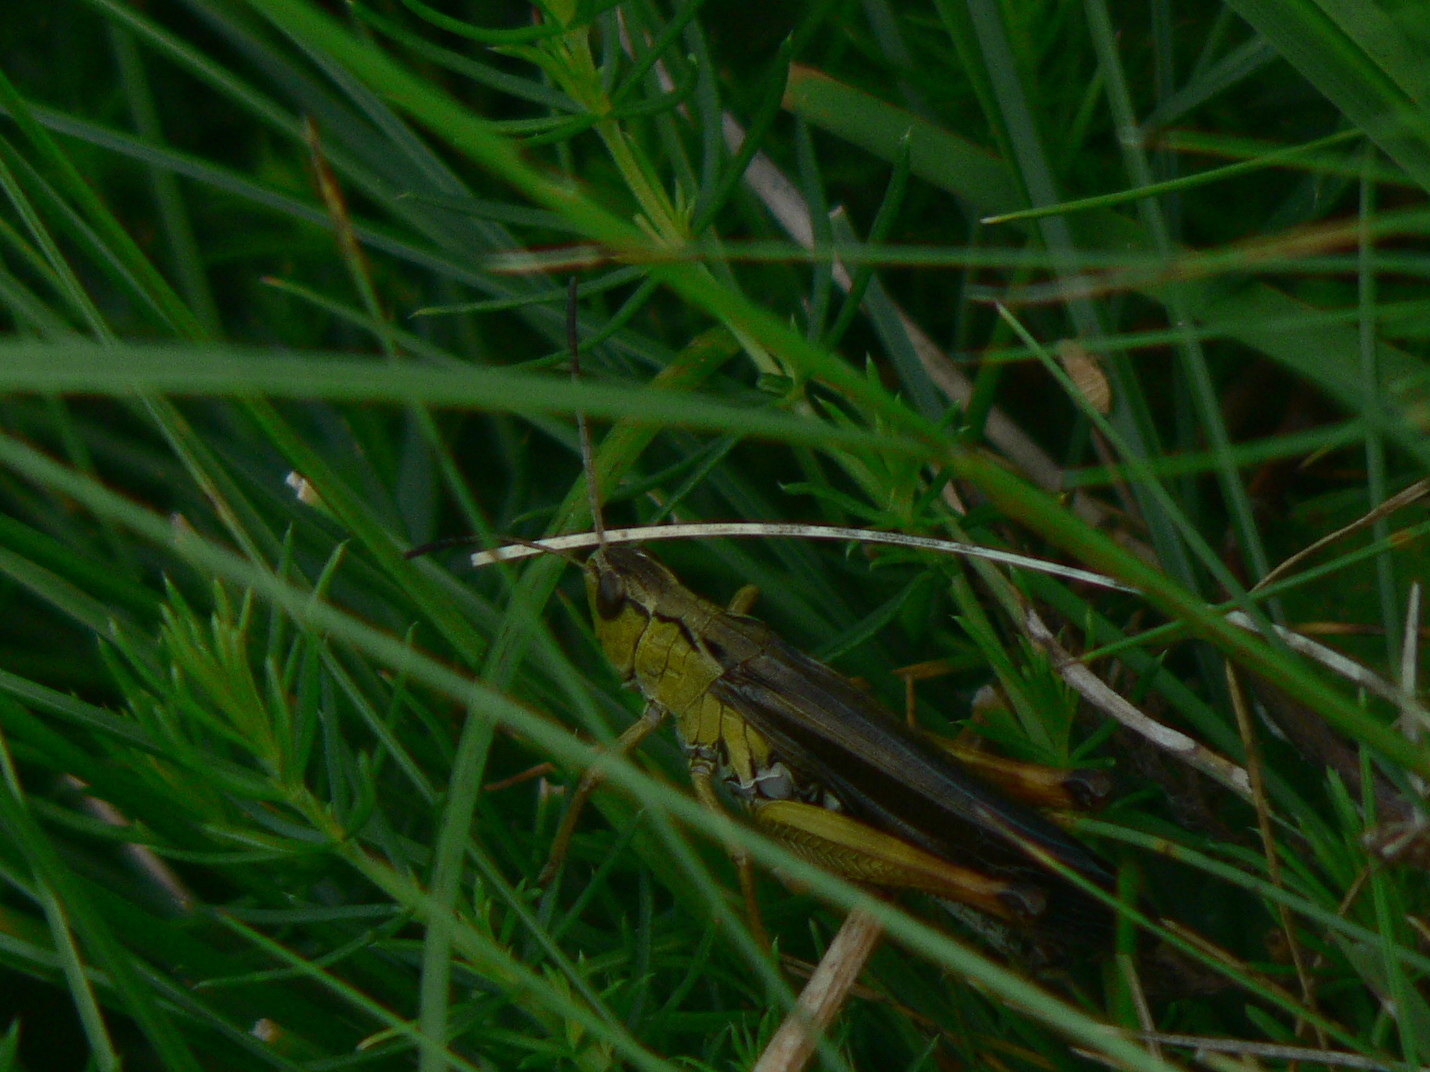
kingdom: Animalia
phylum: Arthropoda
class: Insecta
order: Orthoptera
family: Acrididae
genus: Stauroderus
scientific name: Stauroderus scalaris
